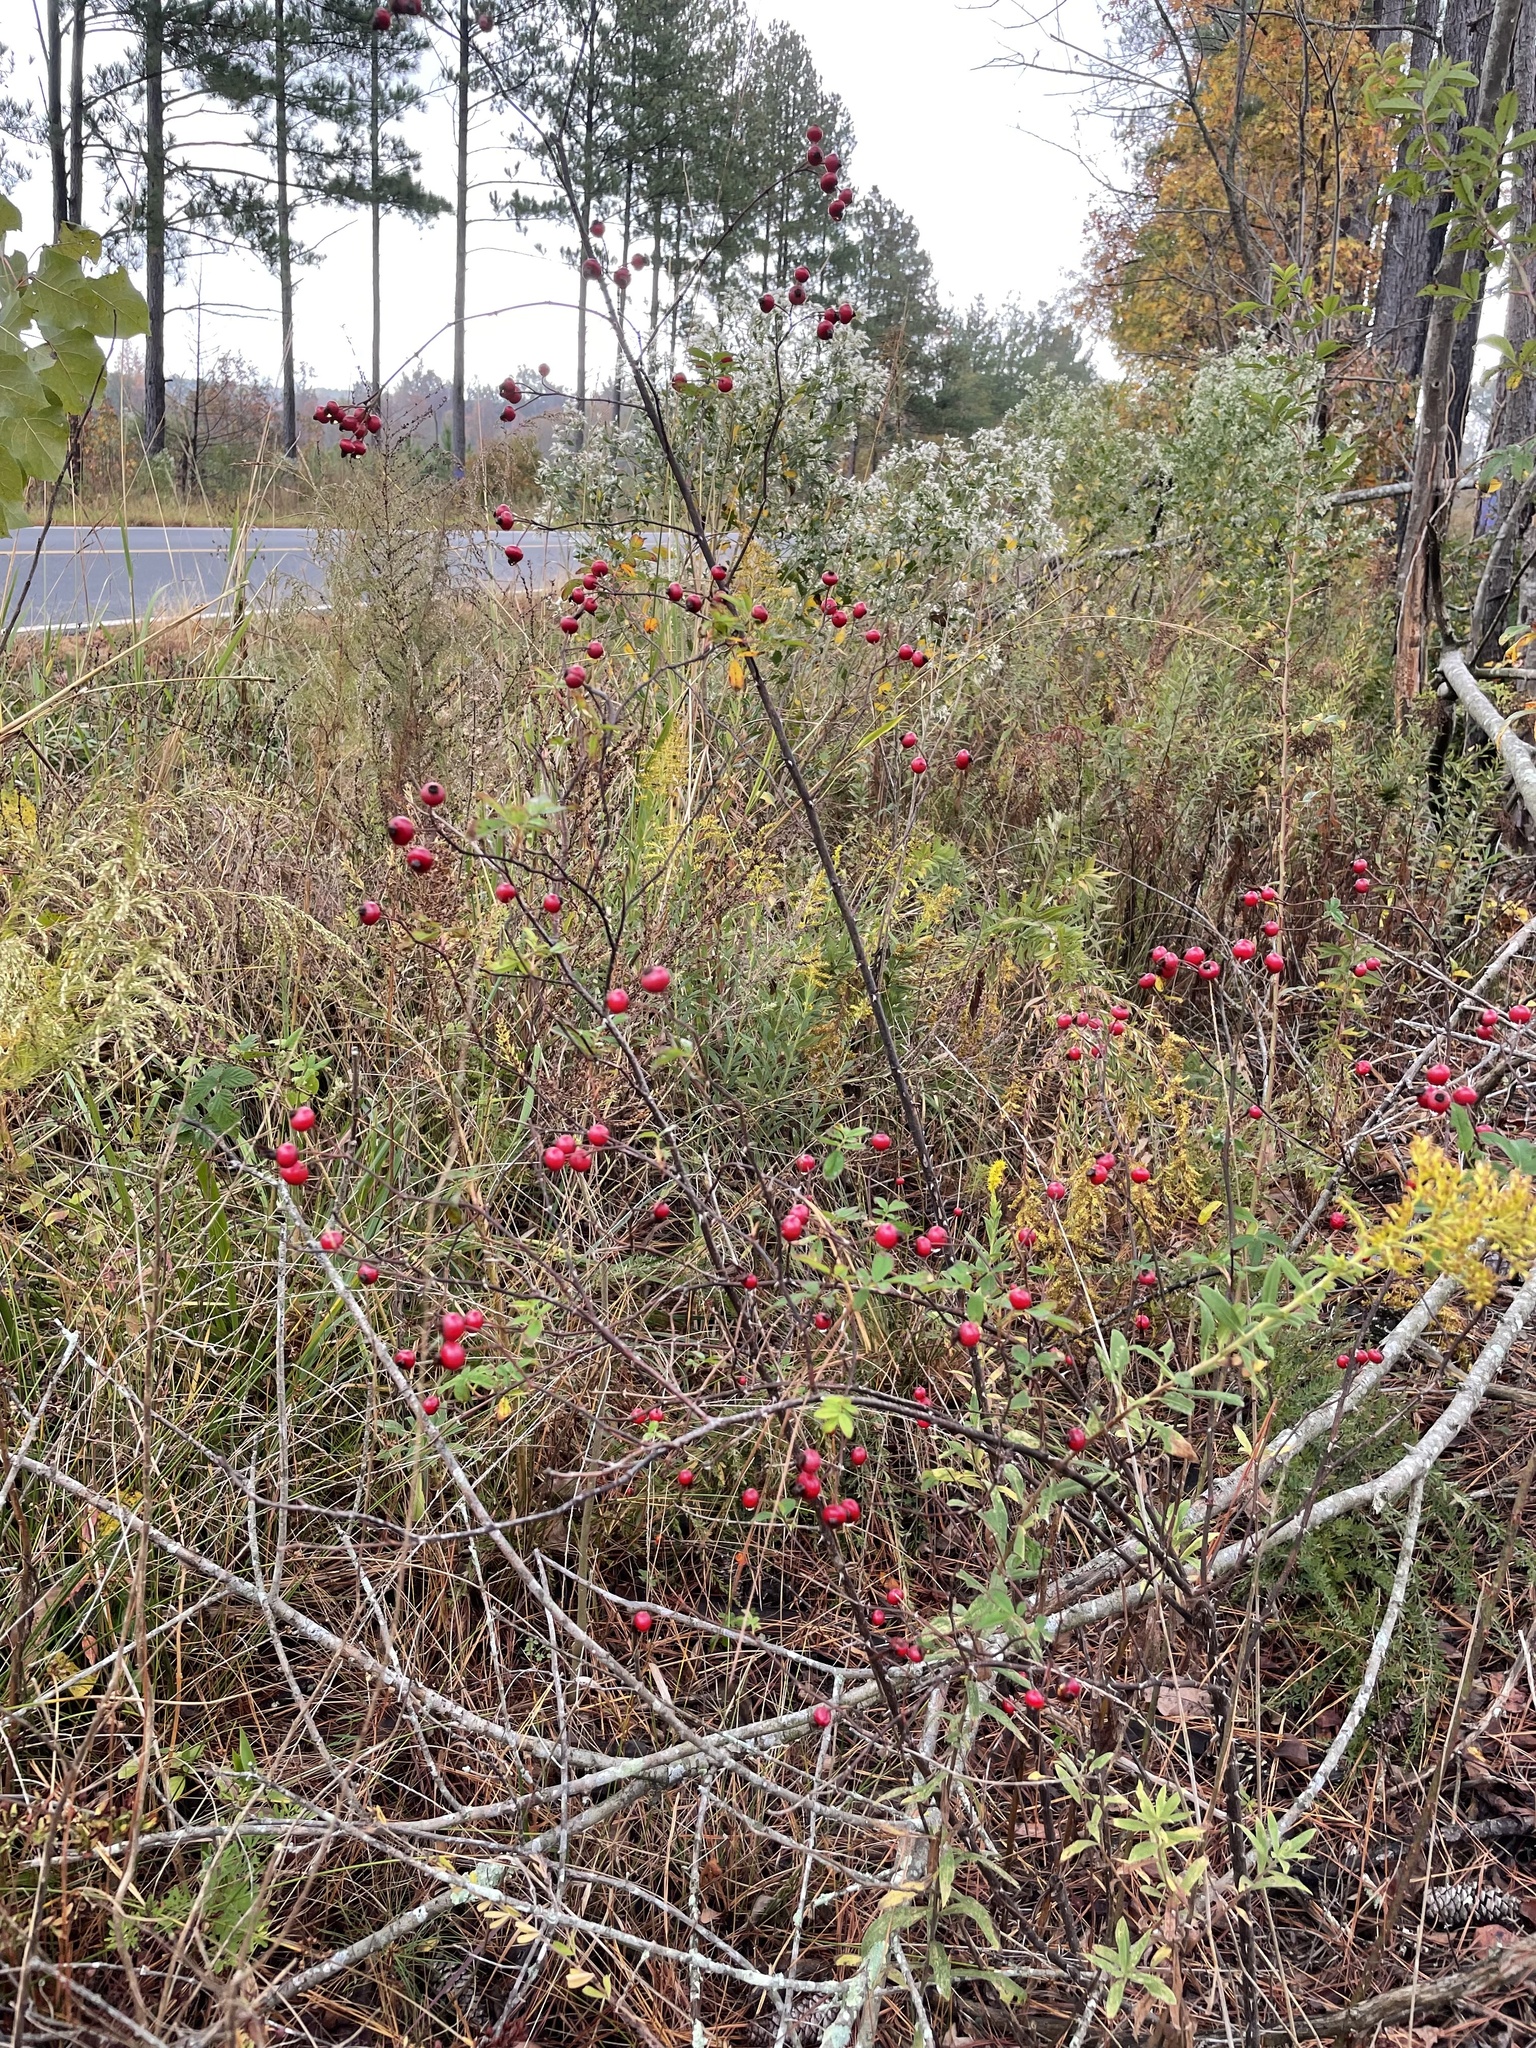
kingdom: Plantae
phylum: Tracheophyta
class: Magnoliopsida
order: Rosales
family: Rosaceae
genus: Rosa
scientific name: Rosa palustris
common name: Swamp rose
